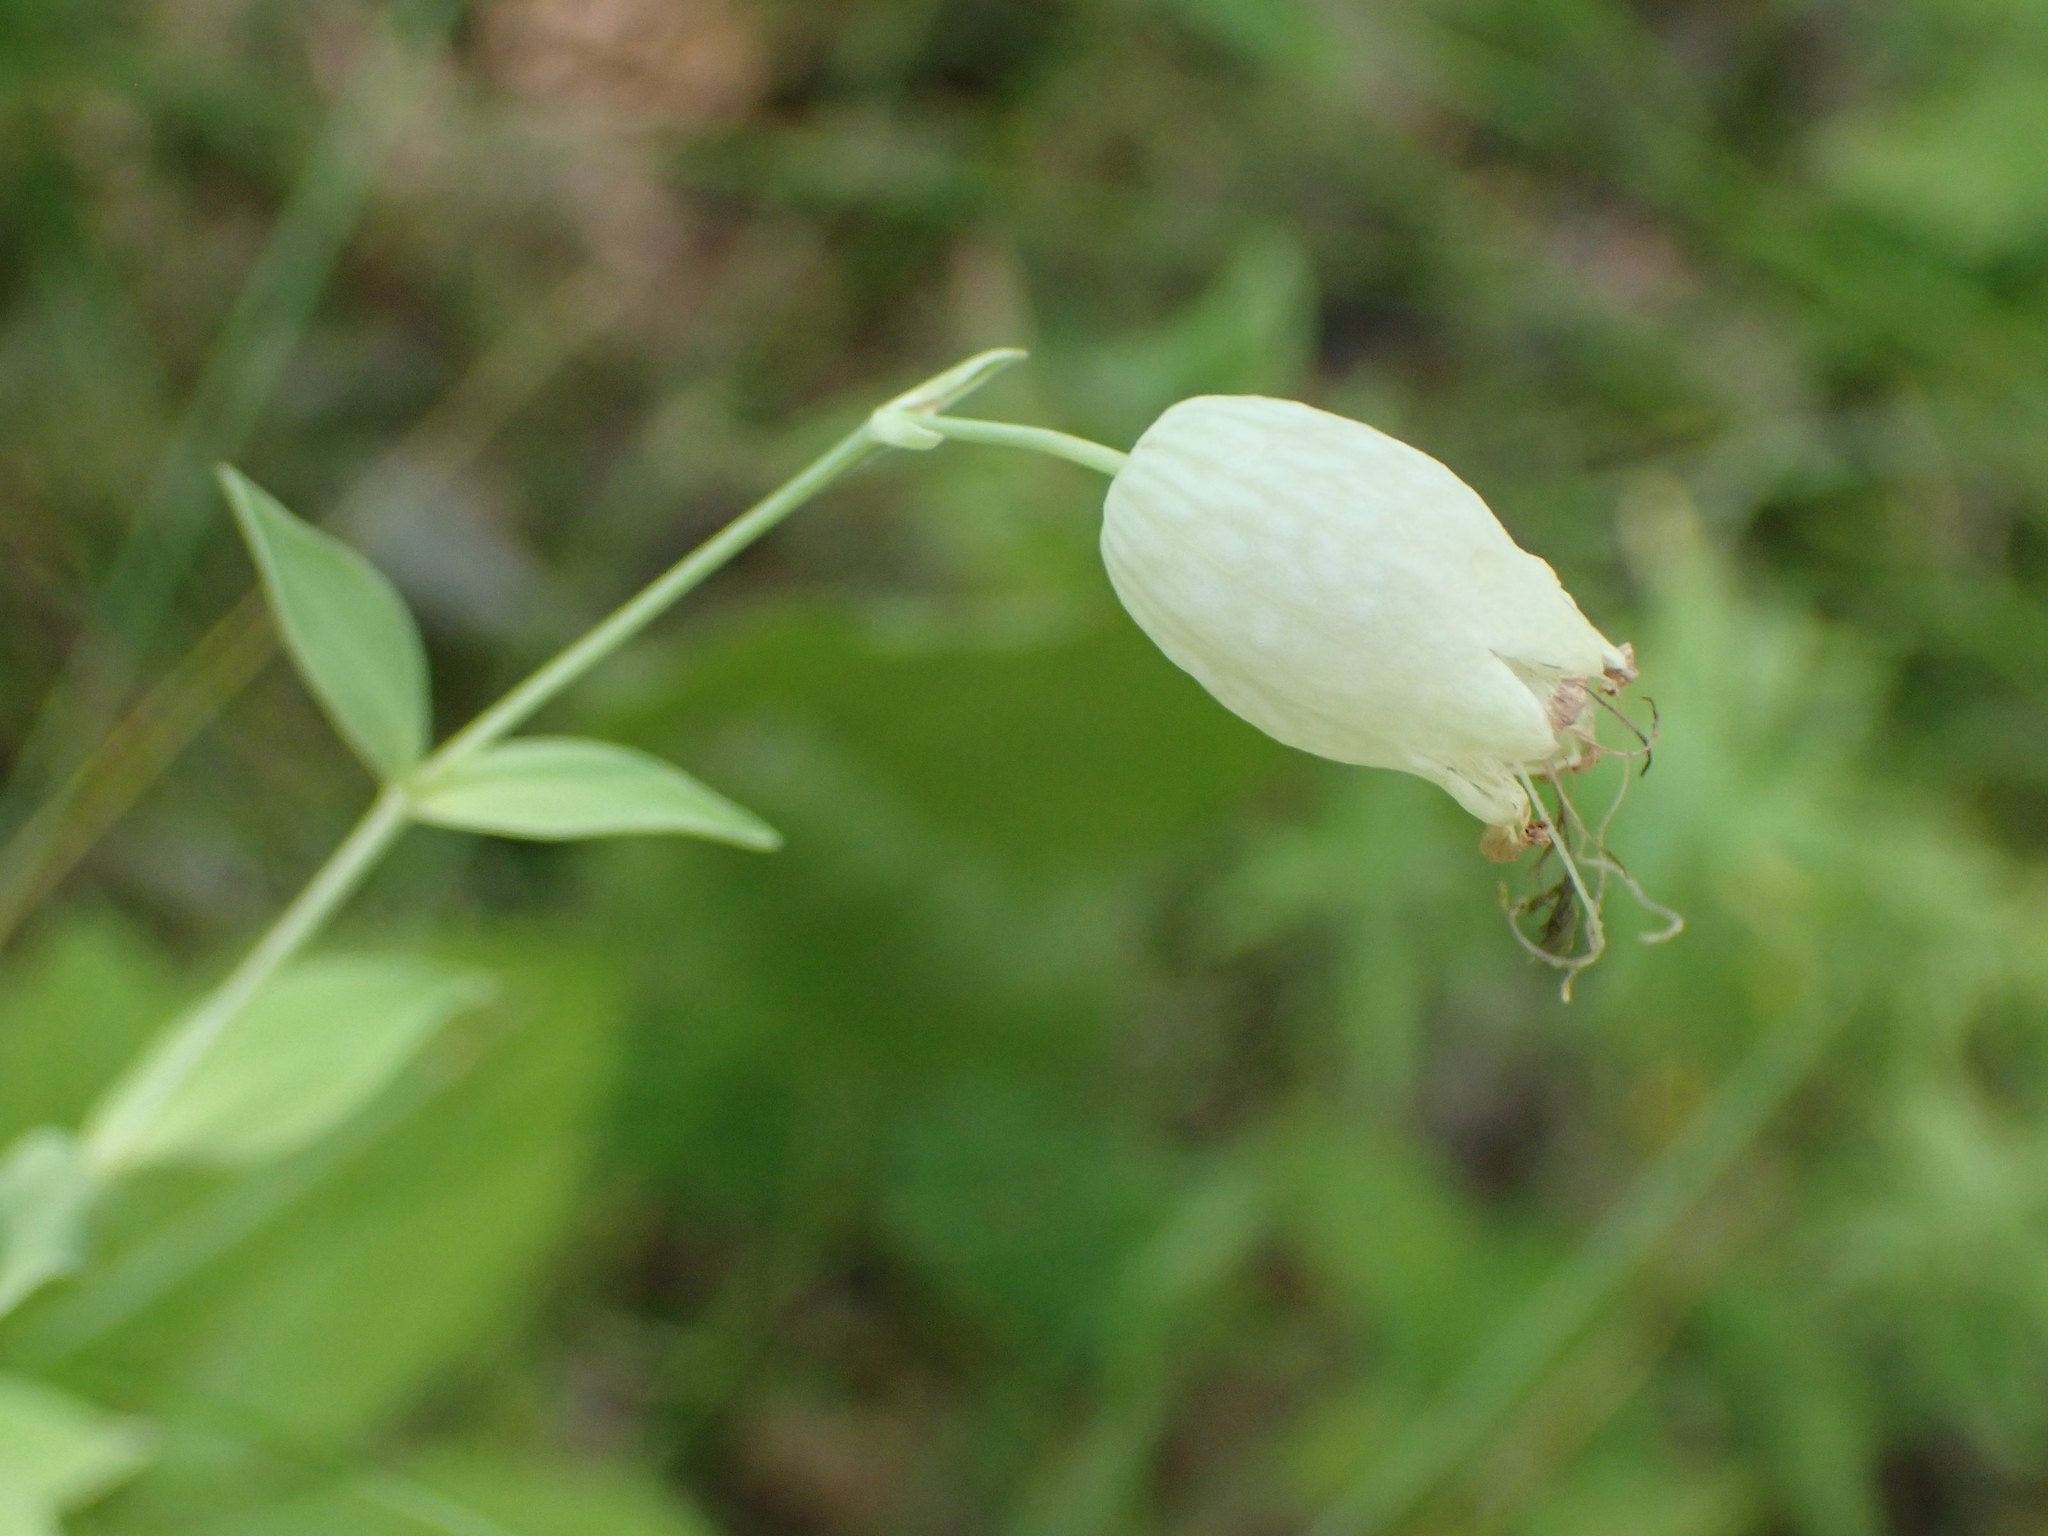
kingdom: Plantae
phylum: Tracheophyta
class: Magnoliopsida
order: Caryophyllales
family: Caryophyllaceae
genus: Silene
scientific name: Silene vulgaris
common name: Bladder campion
